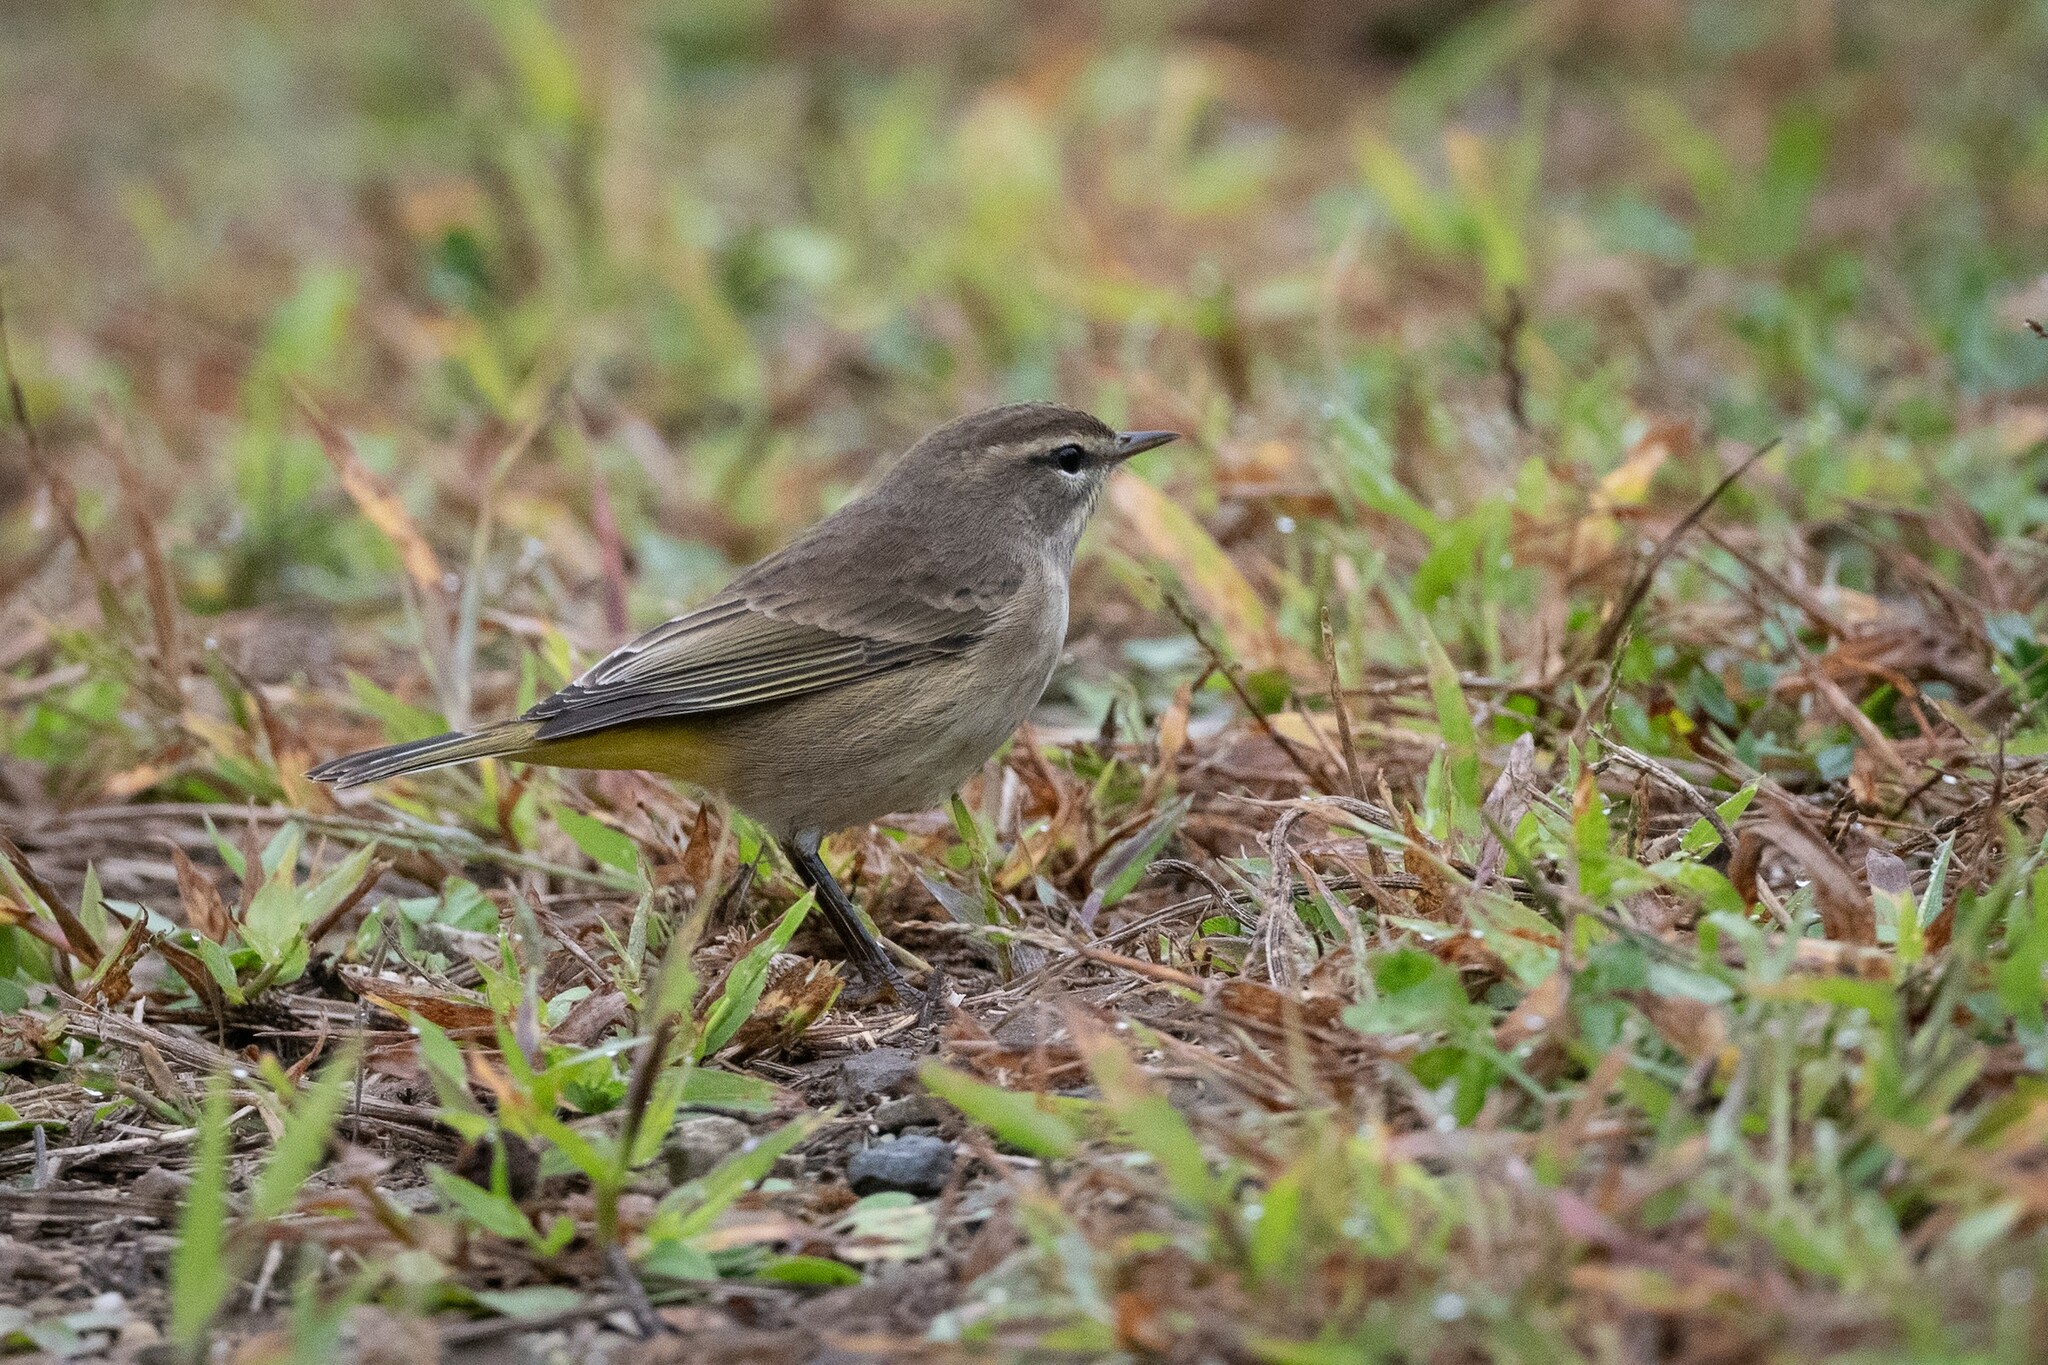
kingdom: Animalia
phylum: Chordata
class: Aves
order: Passeriformes
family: Parulidae
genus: Setophaga
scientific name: Setophaga palmarum
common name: Palm warbler
